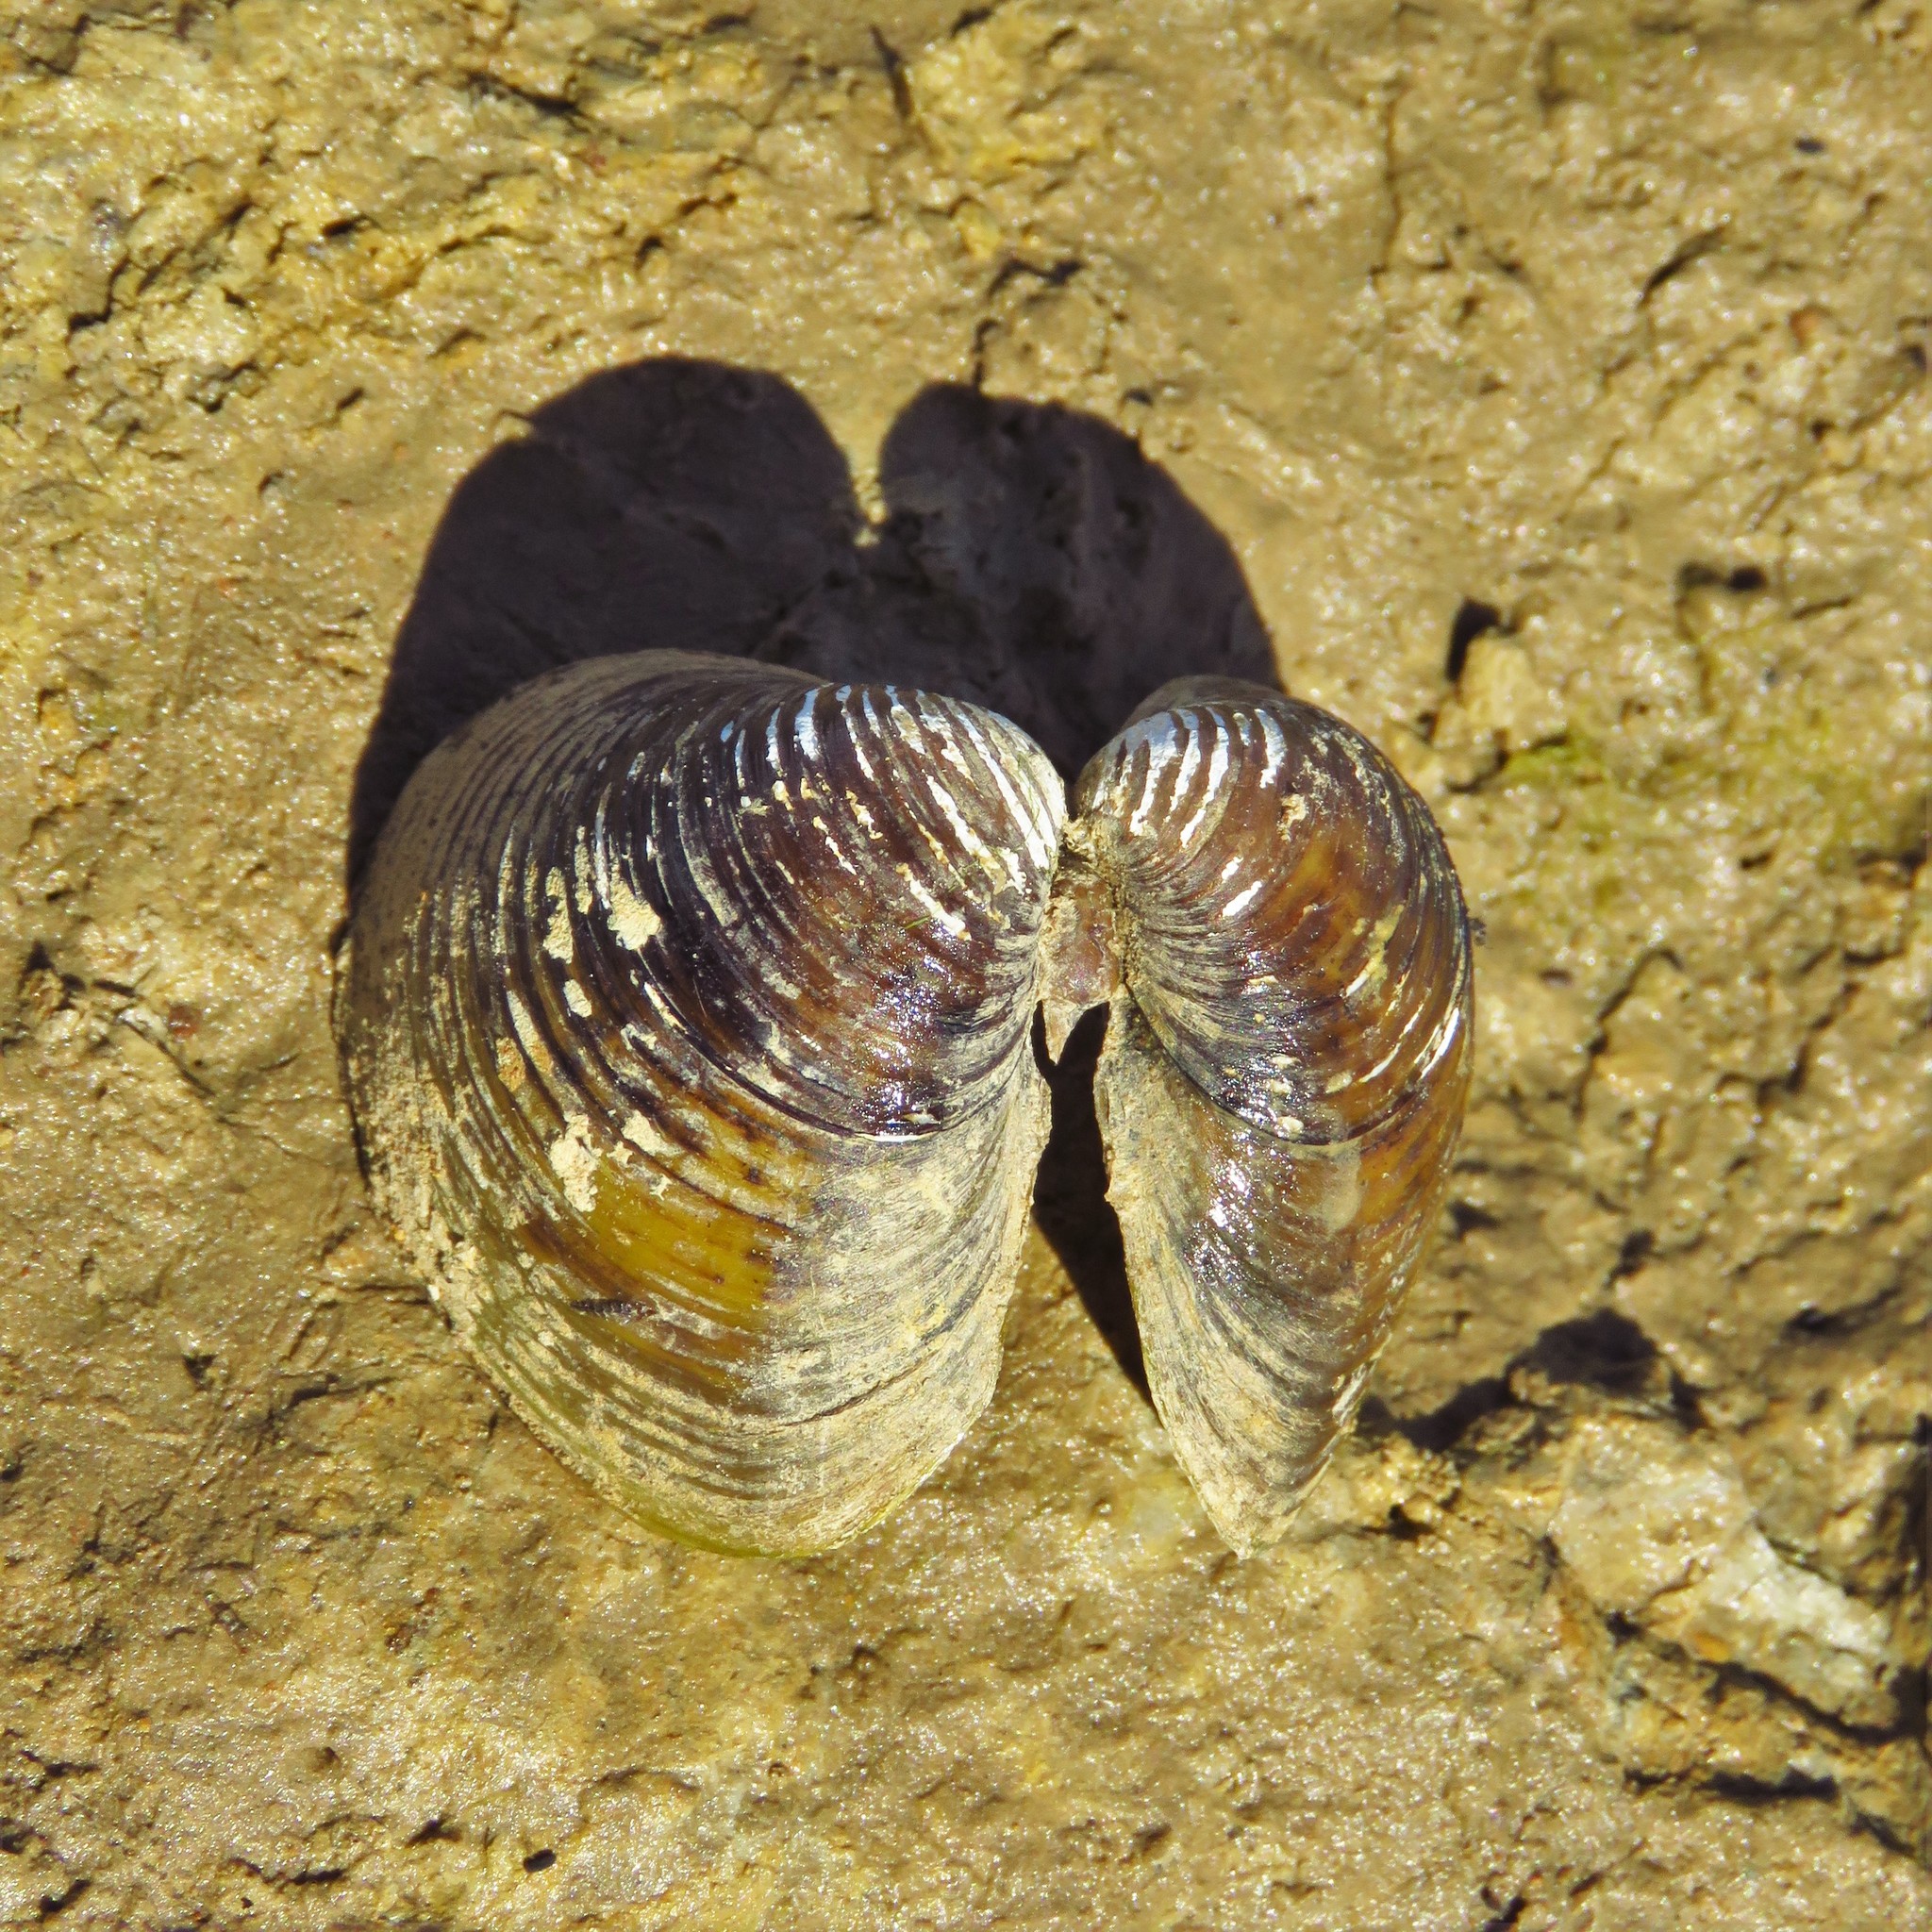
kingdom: Animalia
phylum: Mollusca
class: Bivalvia
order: Venerida
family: Cyrenidae
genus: Corbicula
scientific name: Corbicula fluminea
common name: Asian clam
